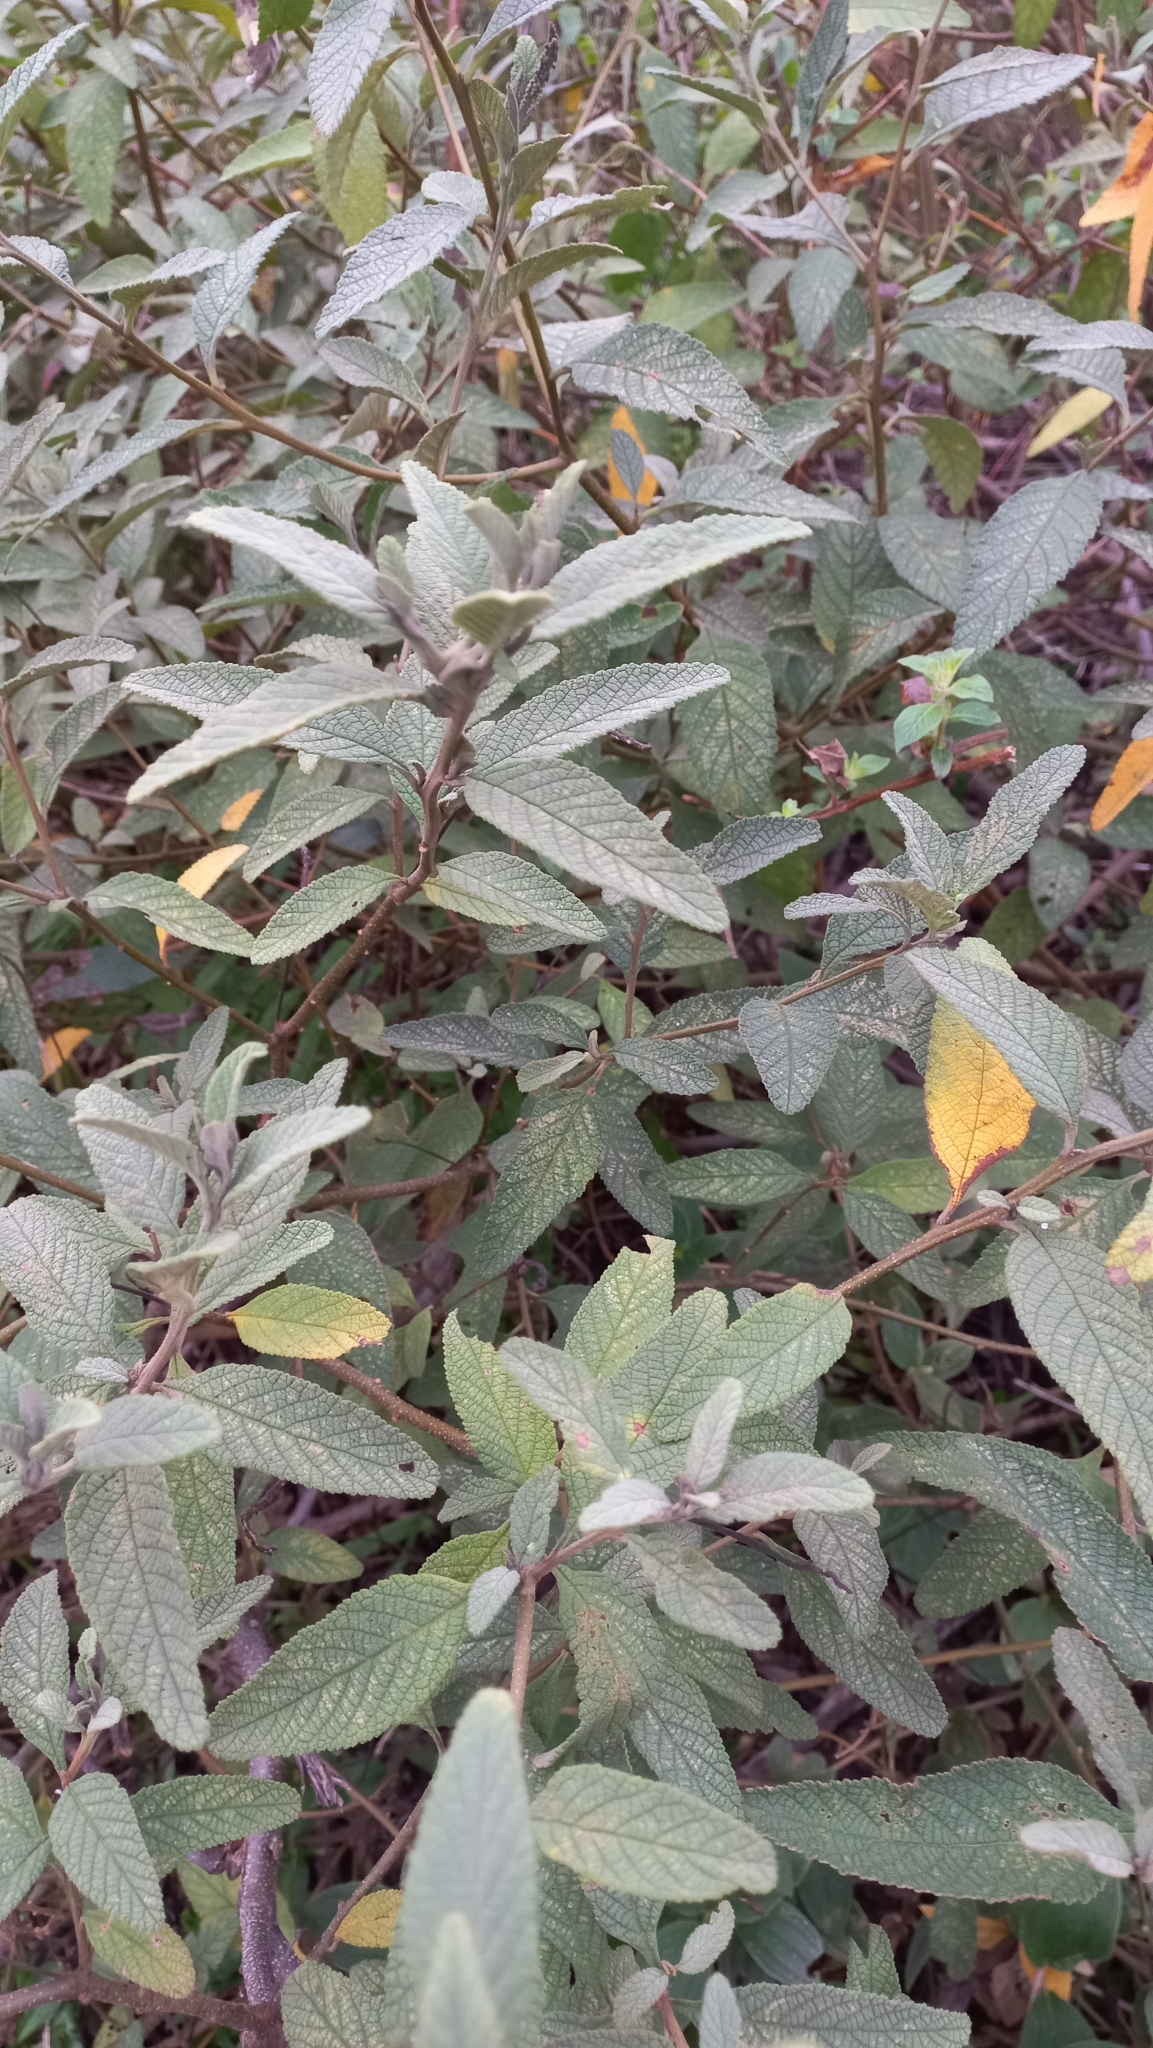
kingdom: Plantae
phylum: Tracheophyta
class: Magnoliopsida
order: Boraginales
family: Cordiaceae
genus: Varronia
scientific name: Varronia curassavica
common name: Black sage
